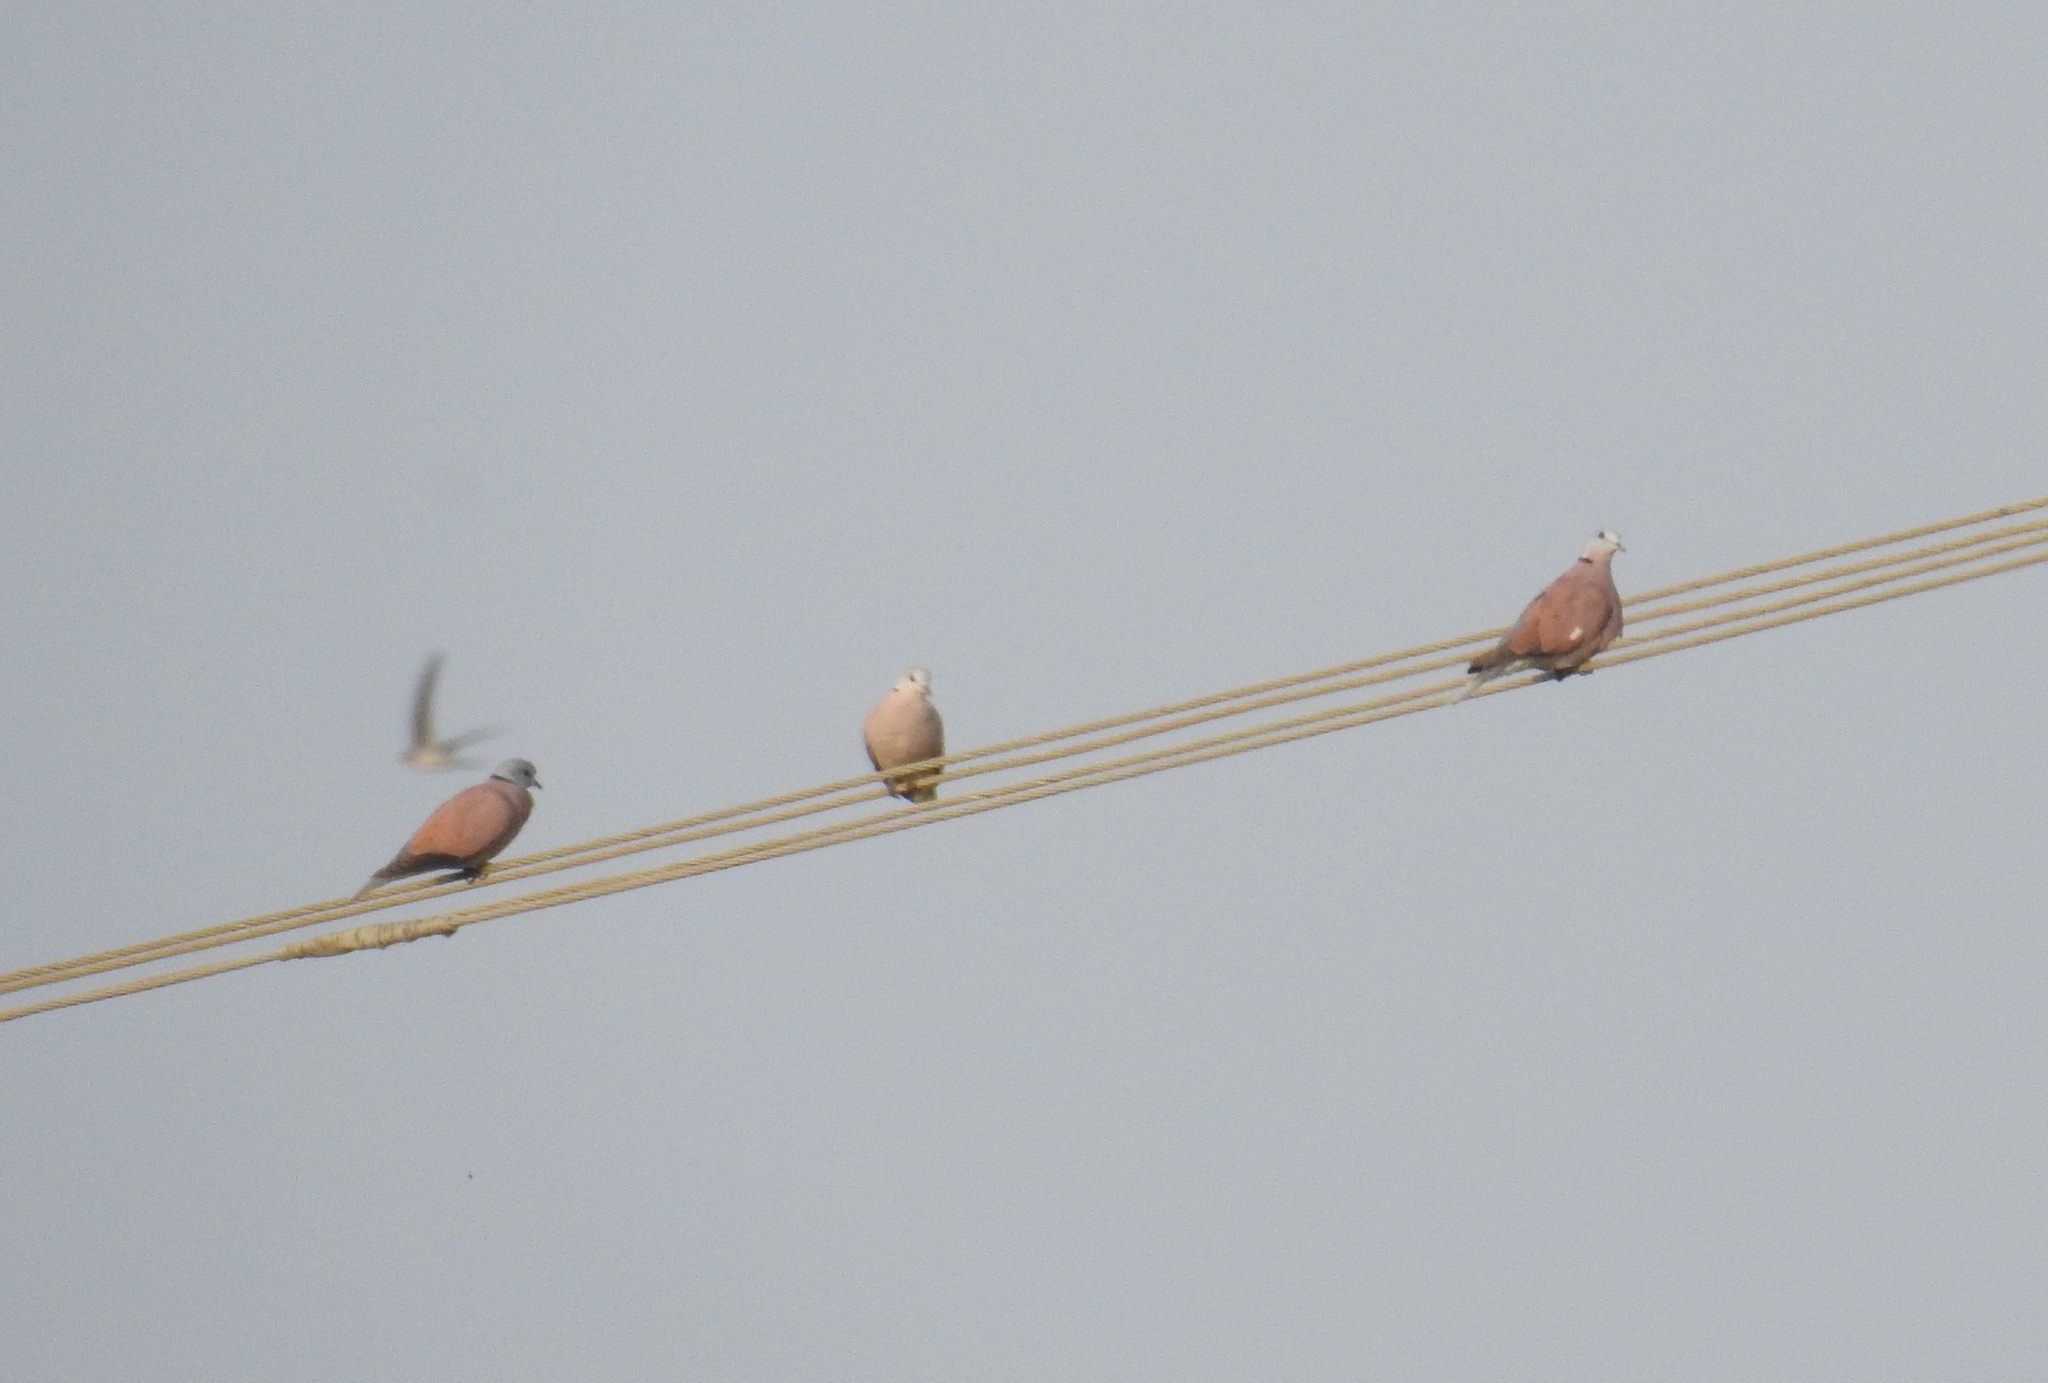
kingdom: Animalia
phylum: Chordata
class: Aves
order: Columbiformes
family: Columbidae
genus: Streptopelia
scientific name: Streptopelia tranquebarica
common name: Red turtle dove
